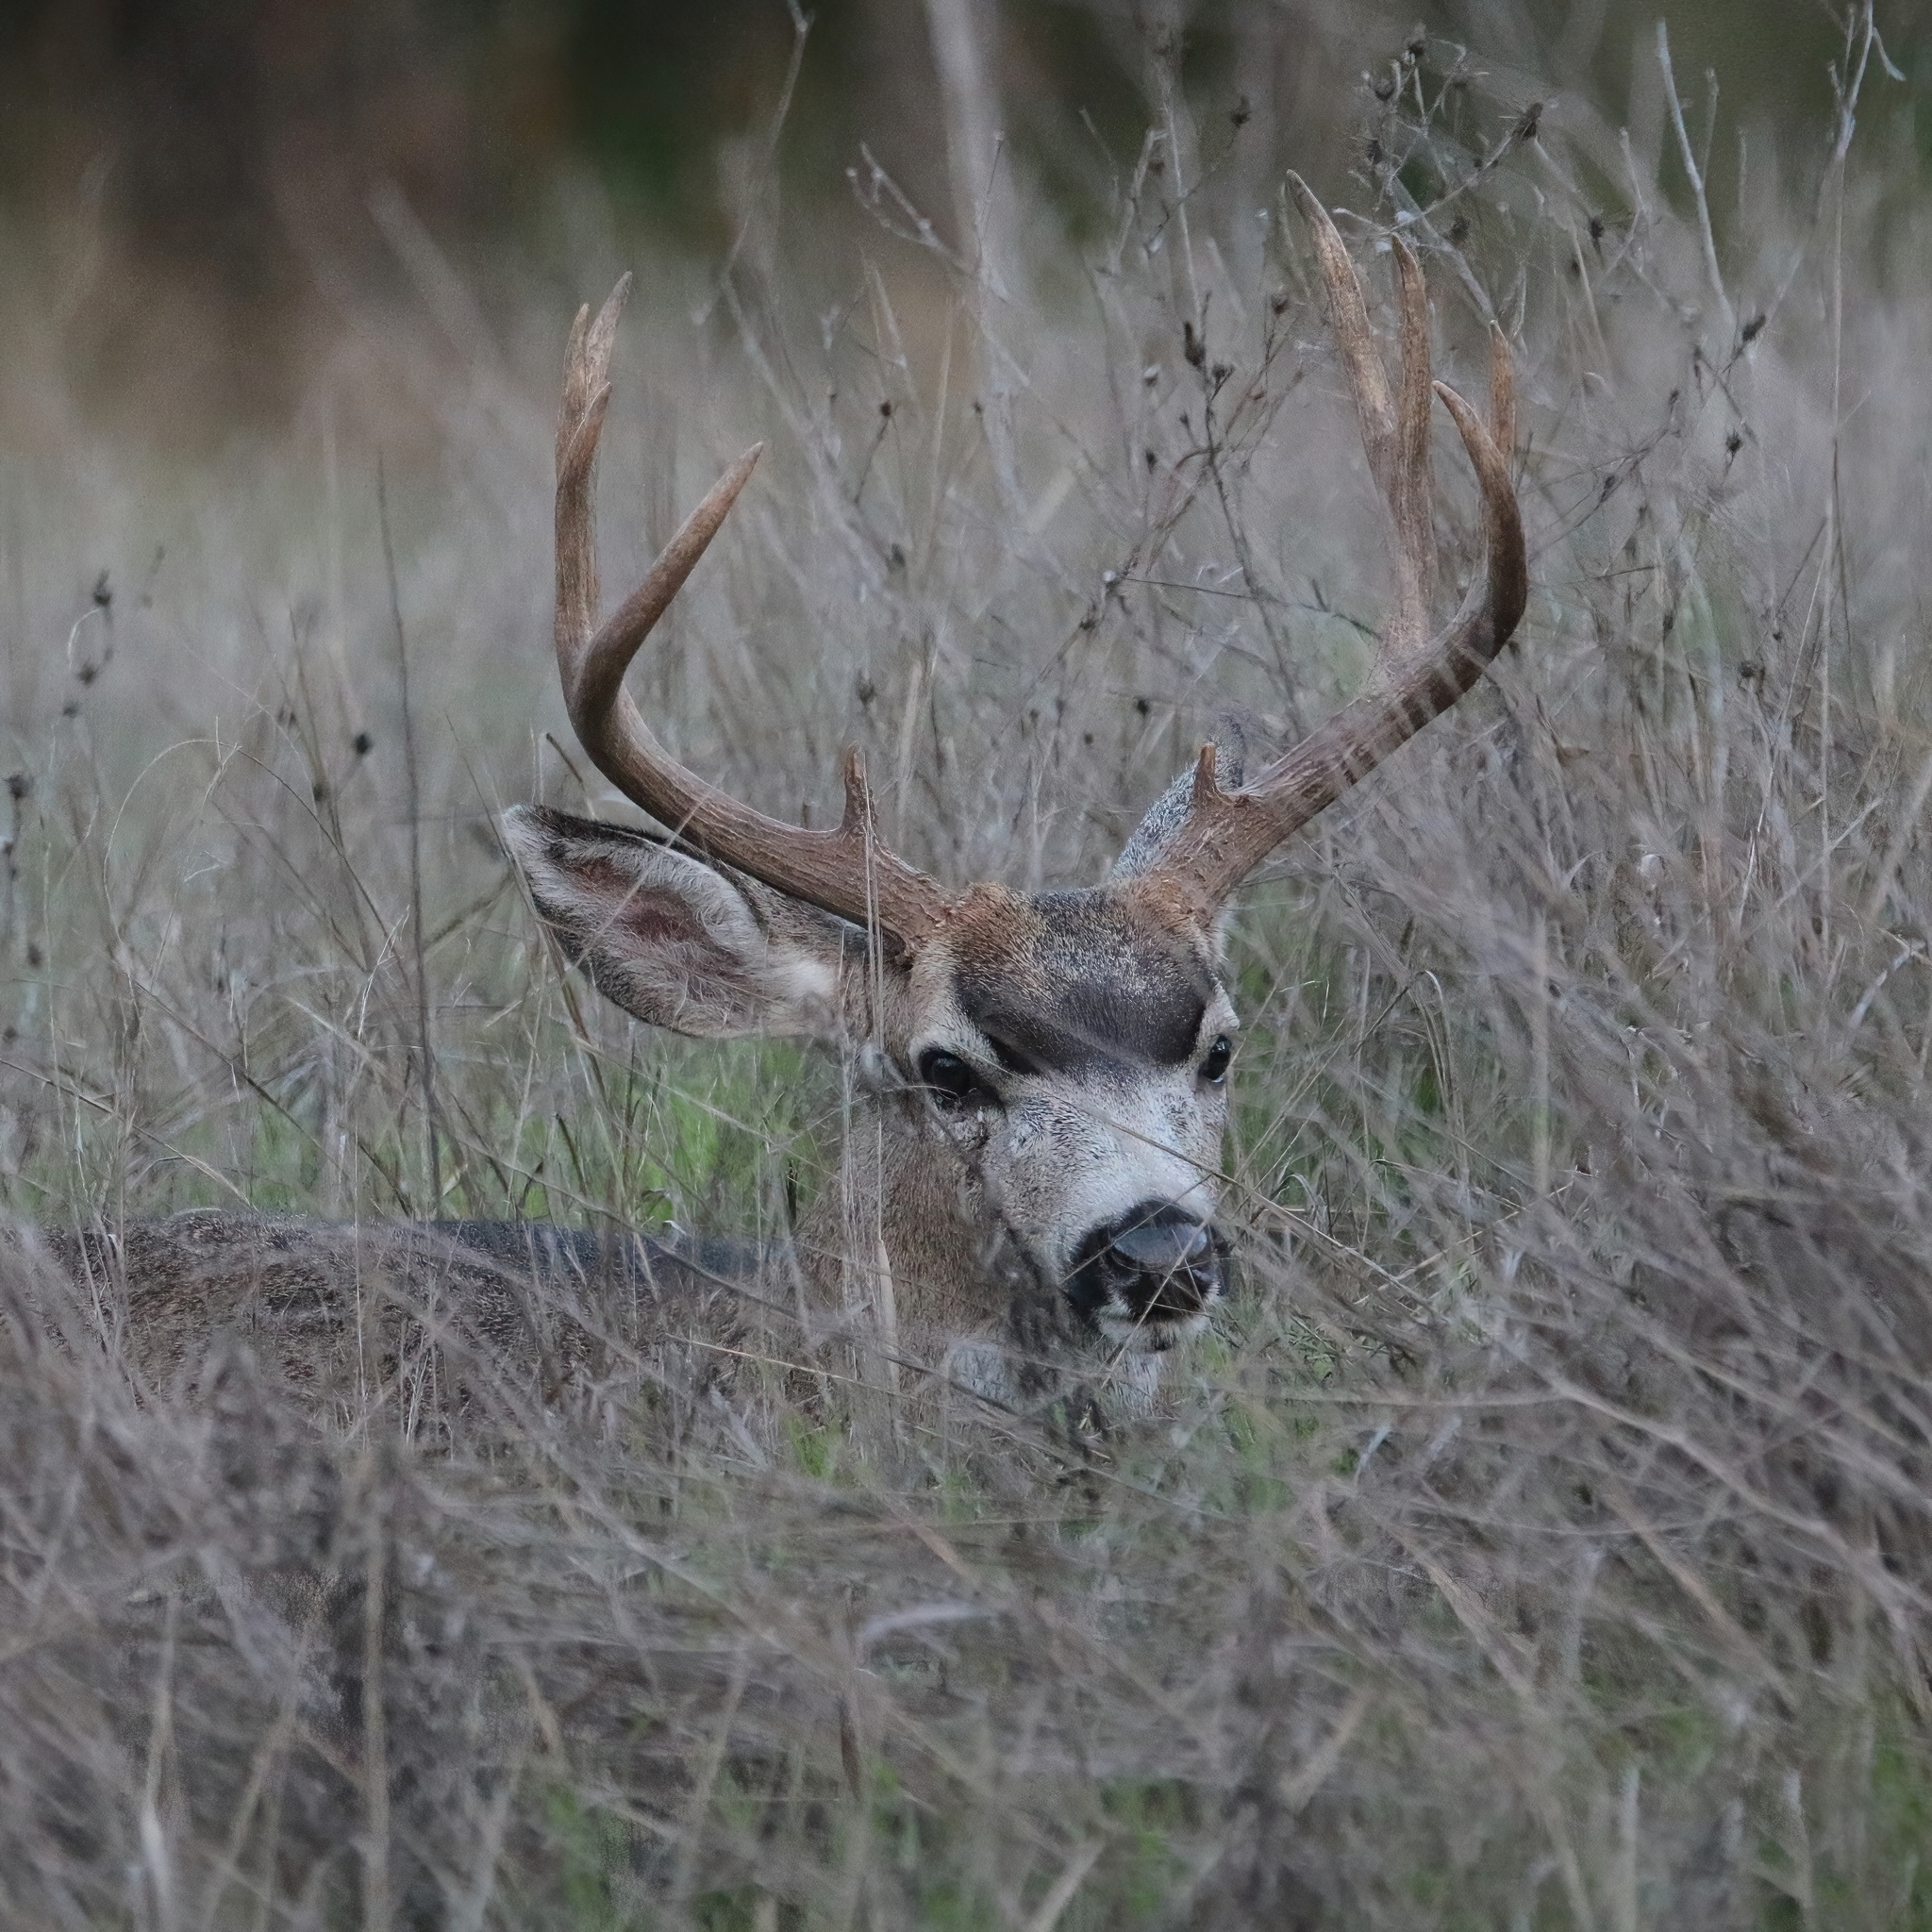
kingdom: Animalia
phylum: Chordata
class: Mammalia
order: Artiodactyla
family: Cervidae
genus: Odocoileus
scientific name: Odocoileus hemionus
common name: Mule deer
